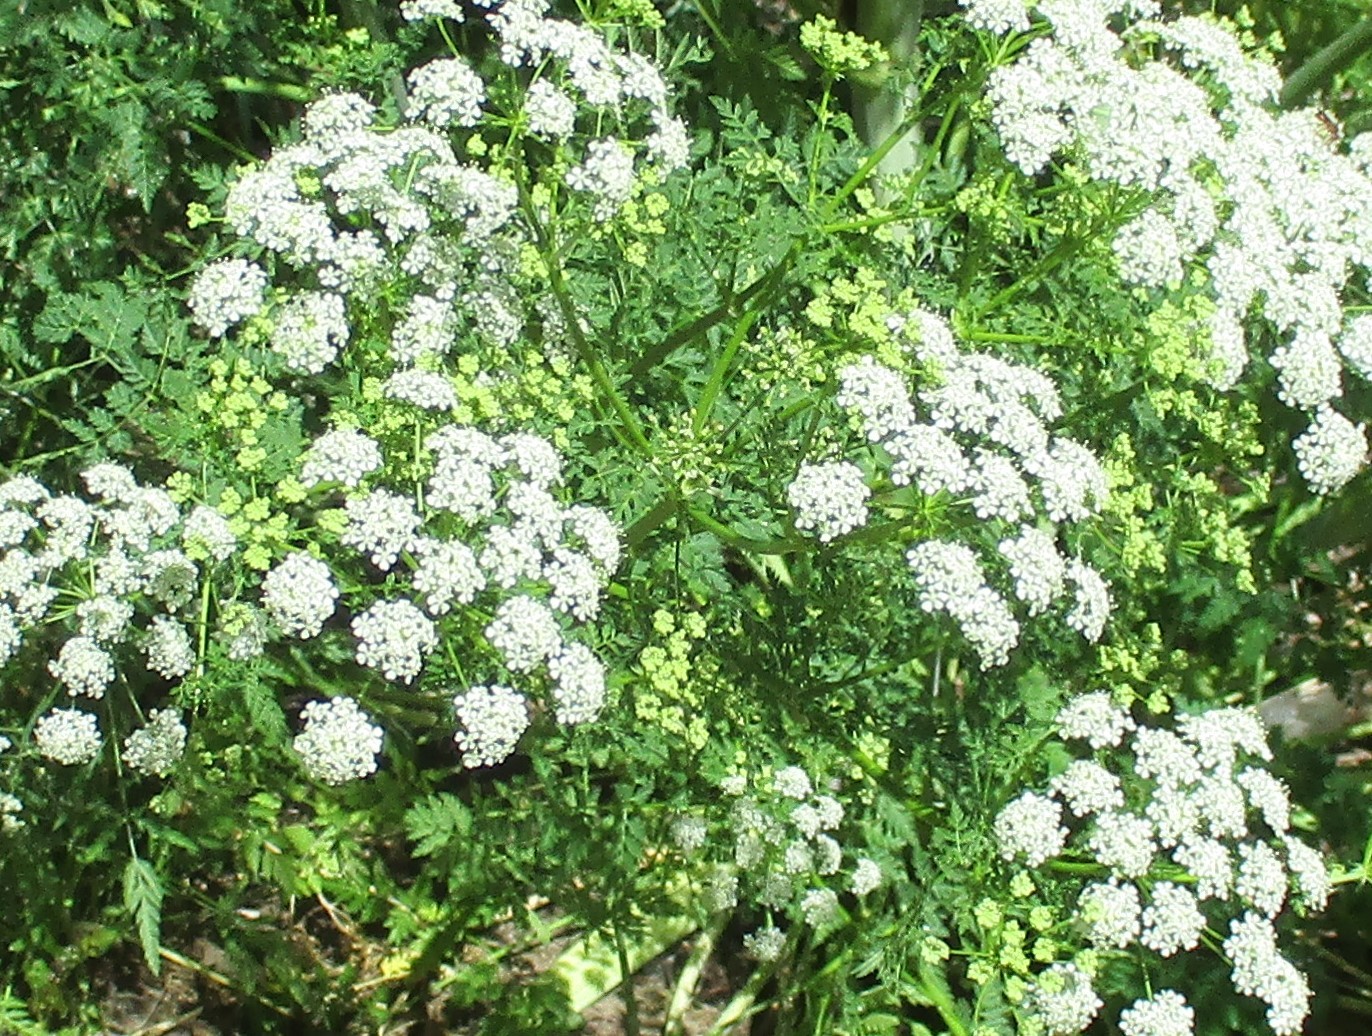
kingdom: Plantae
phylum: Tracheophyta
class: Magnoliopsida
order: Asterales
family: Asteraceae
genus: Achillea
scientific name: Achillea millefolium
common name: Yarrow
